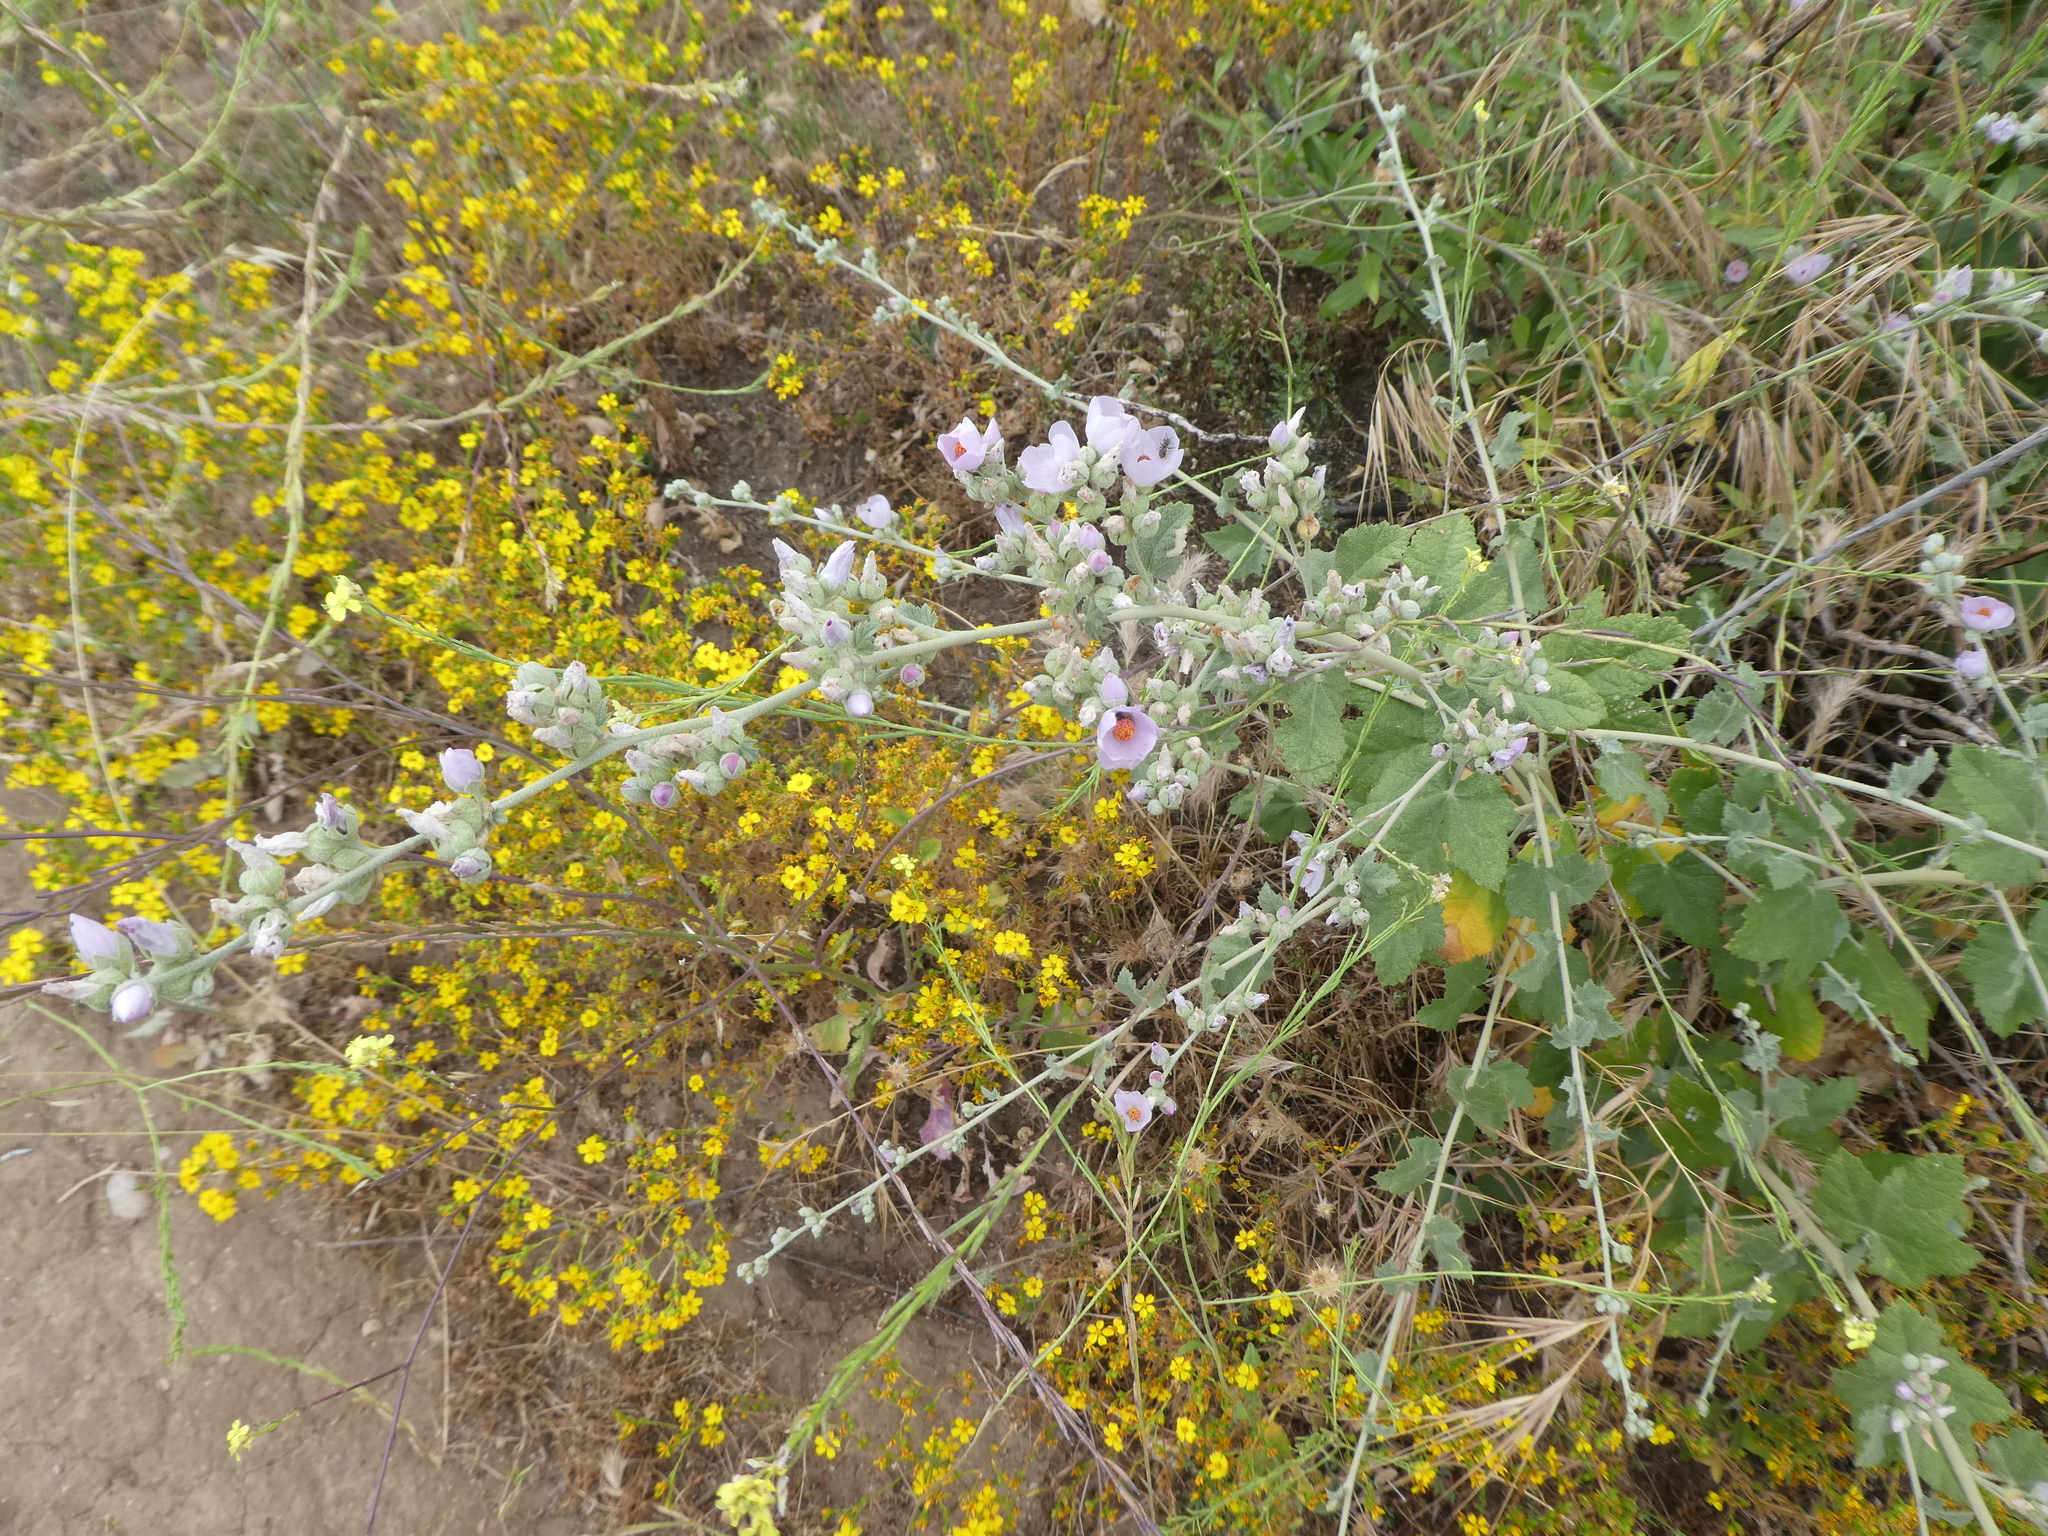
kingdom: Plantae
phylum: Tracheophyta
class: Magnoliopsida
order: Malvales
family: Malvaceae
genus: Malacothamnus
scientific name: Malacothamnus fasciculatus
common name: Sant cruz island bush-mallow
